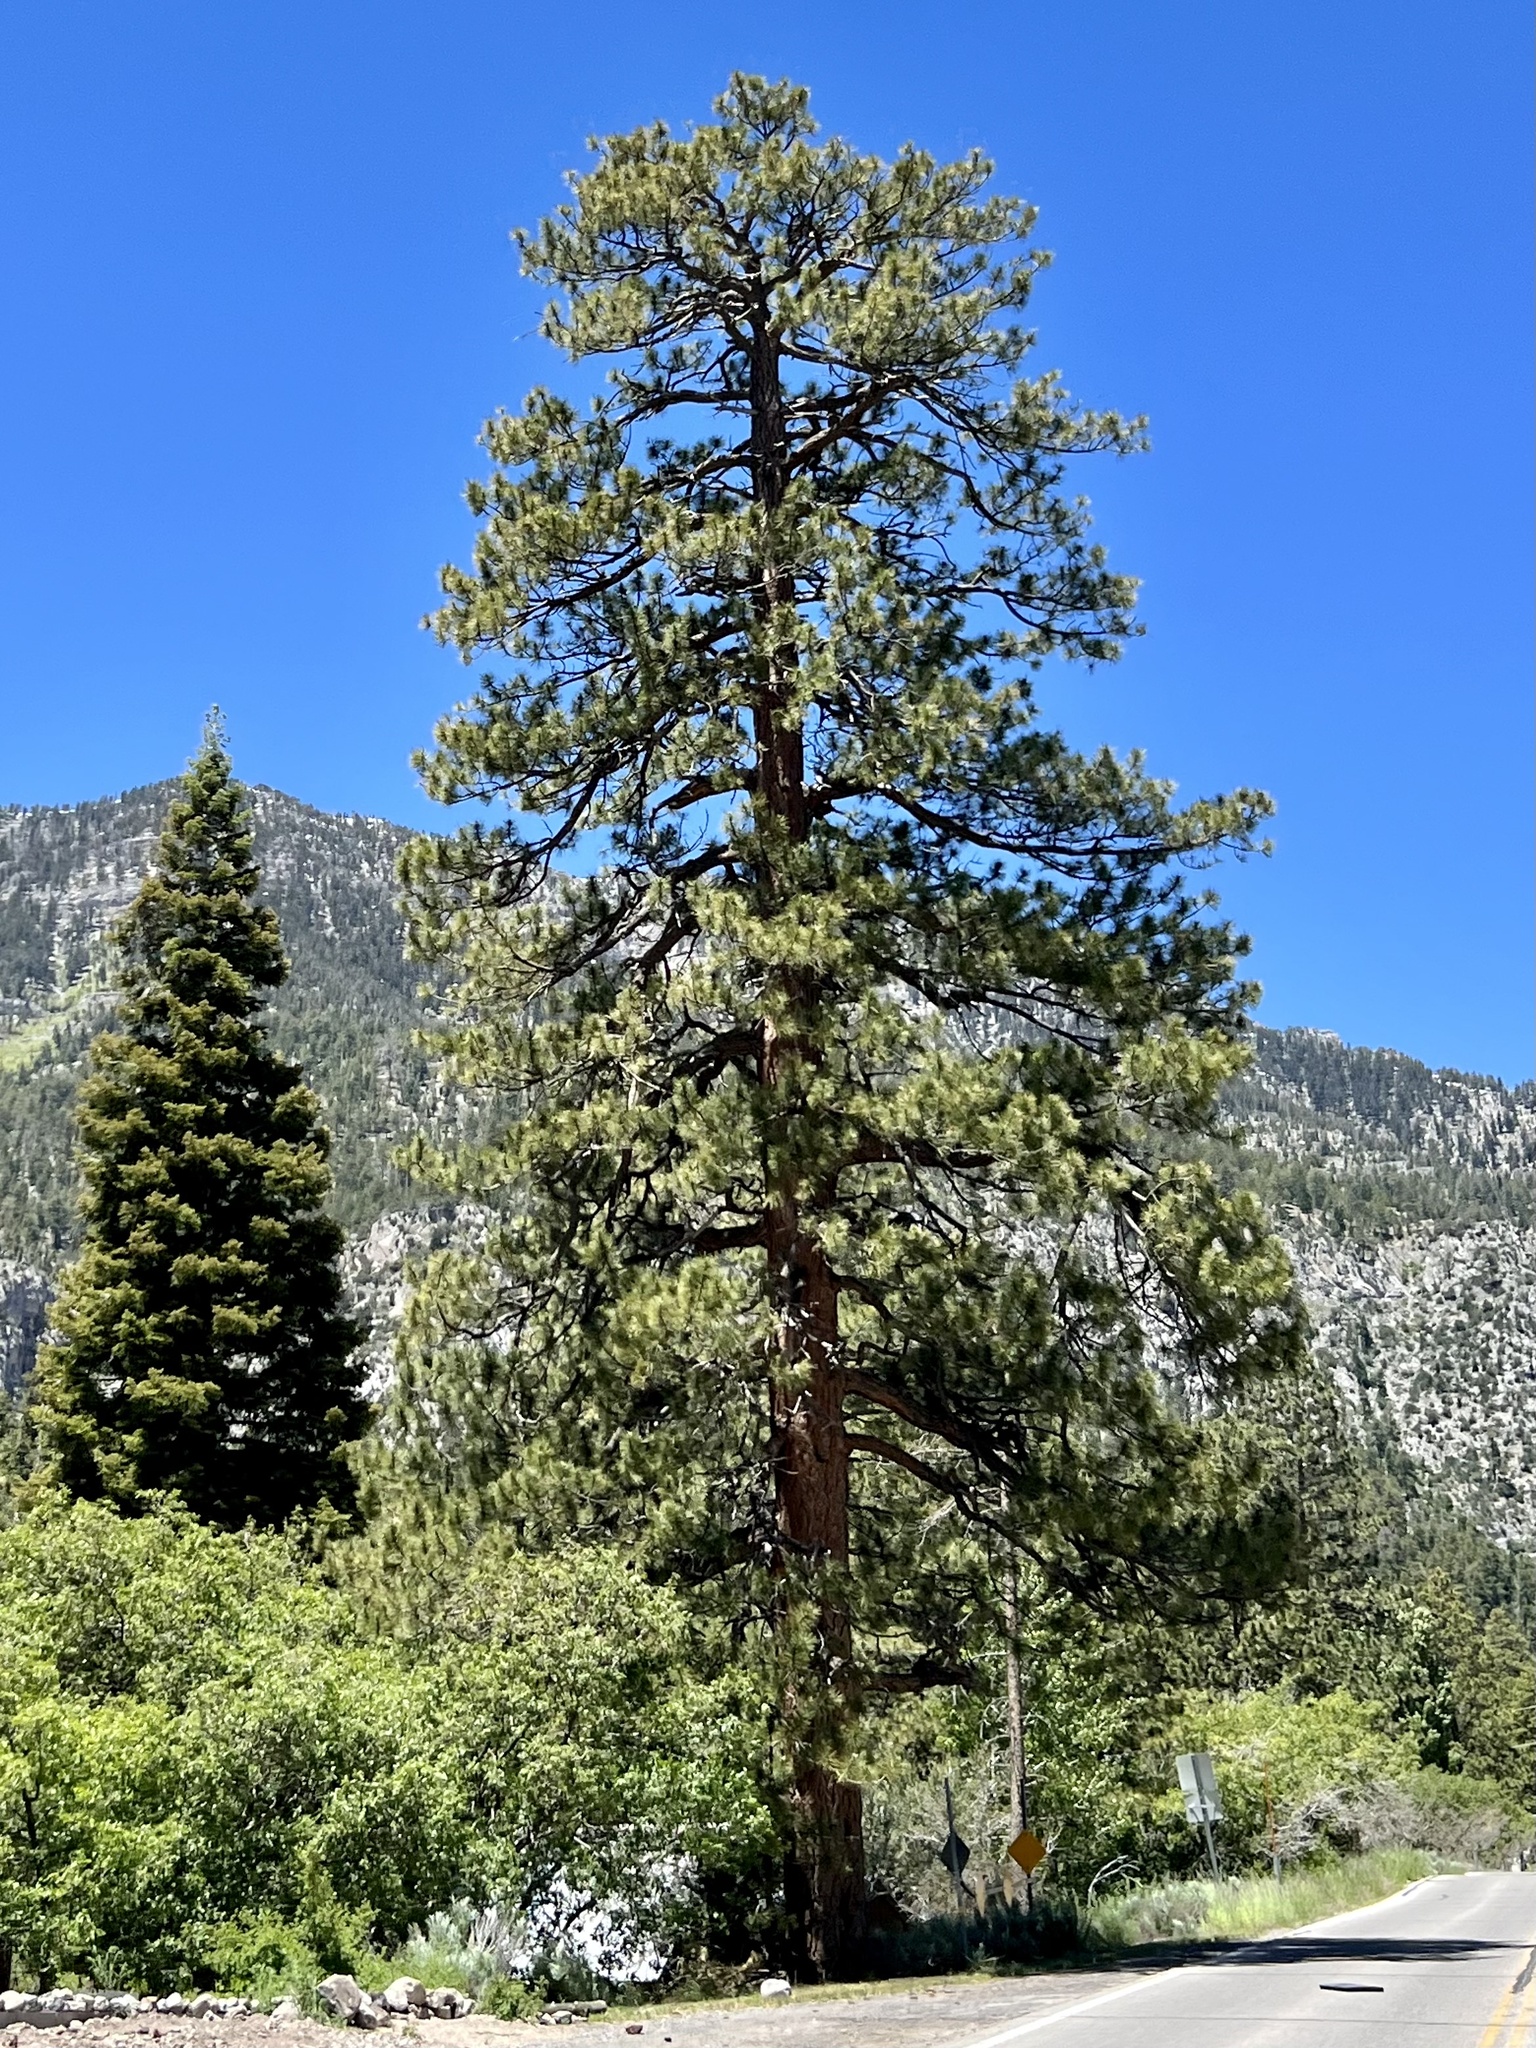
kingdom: Plantae
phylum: Tracheophyta
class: Pinopsida
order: Pinales
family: Pinaceae
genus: Pinus
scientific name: Pinus ponderosa
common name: Western yellow-pine
